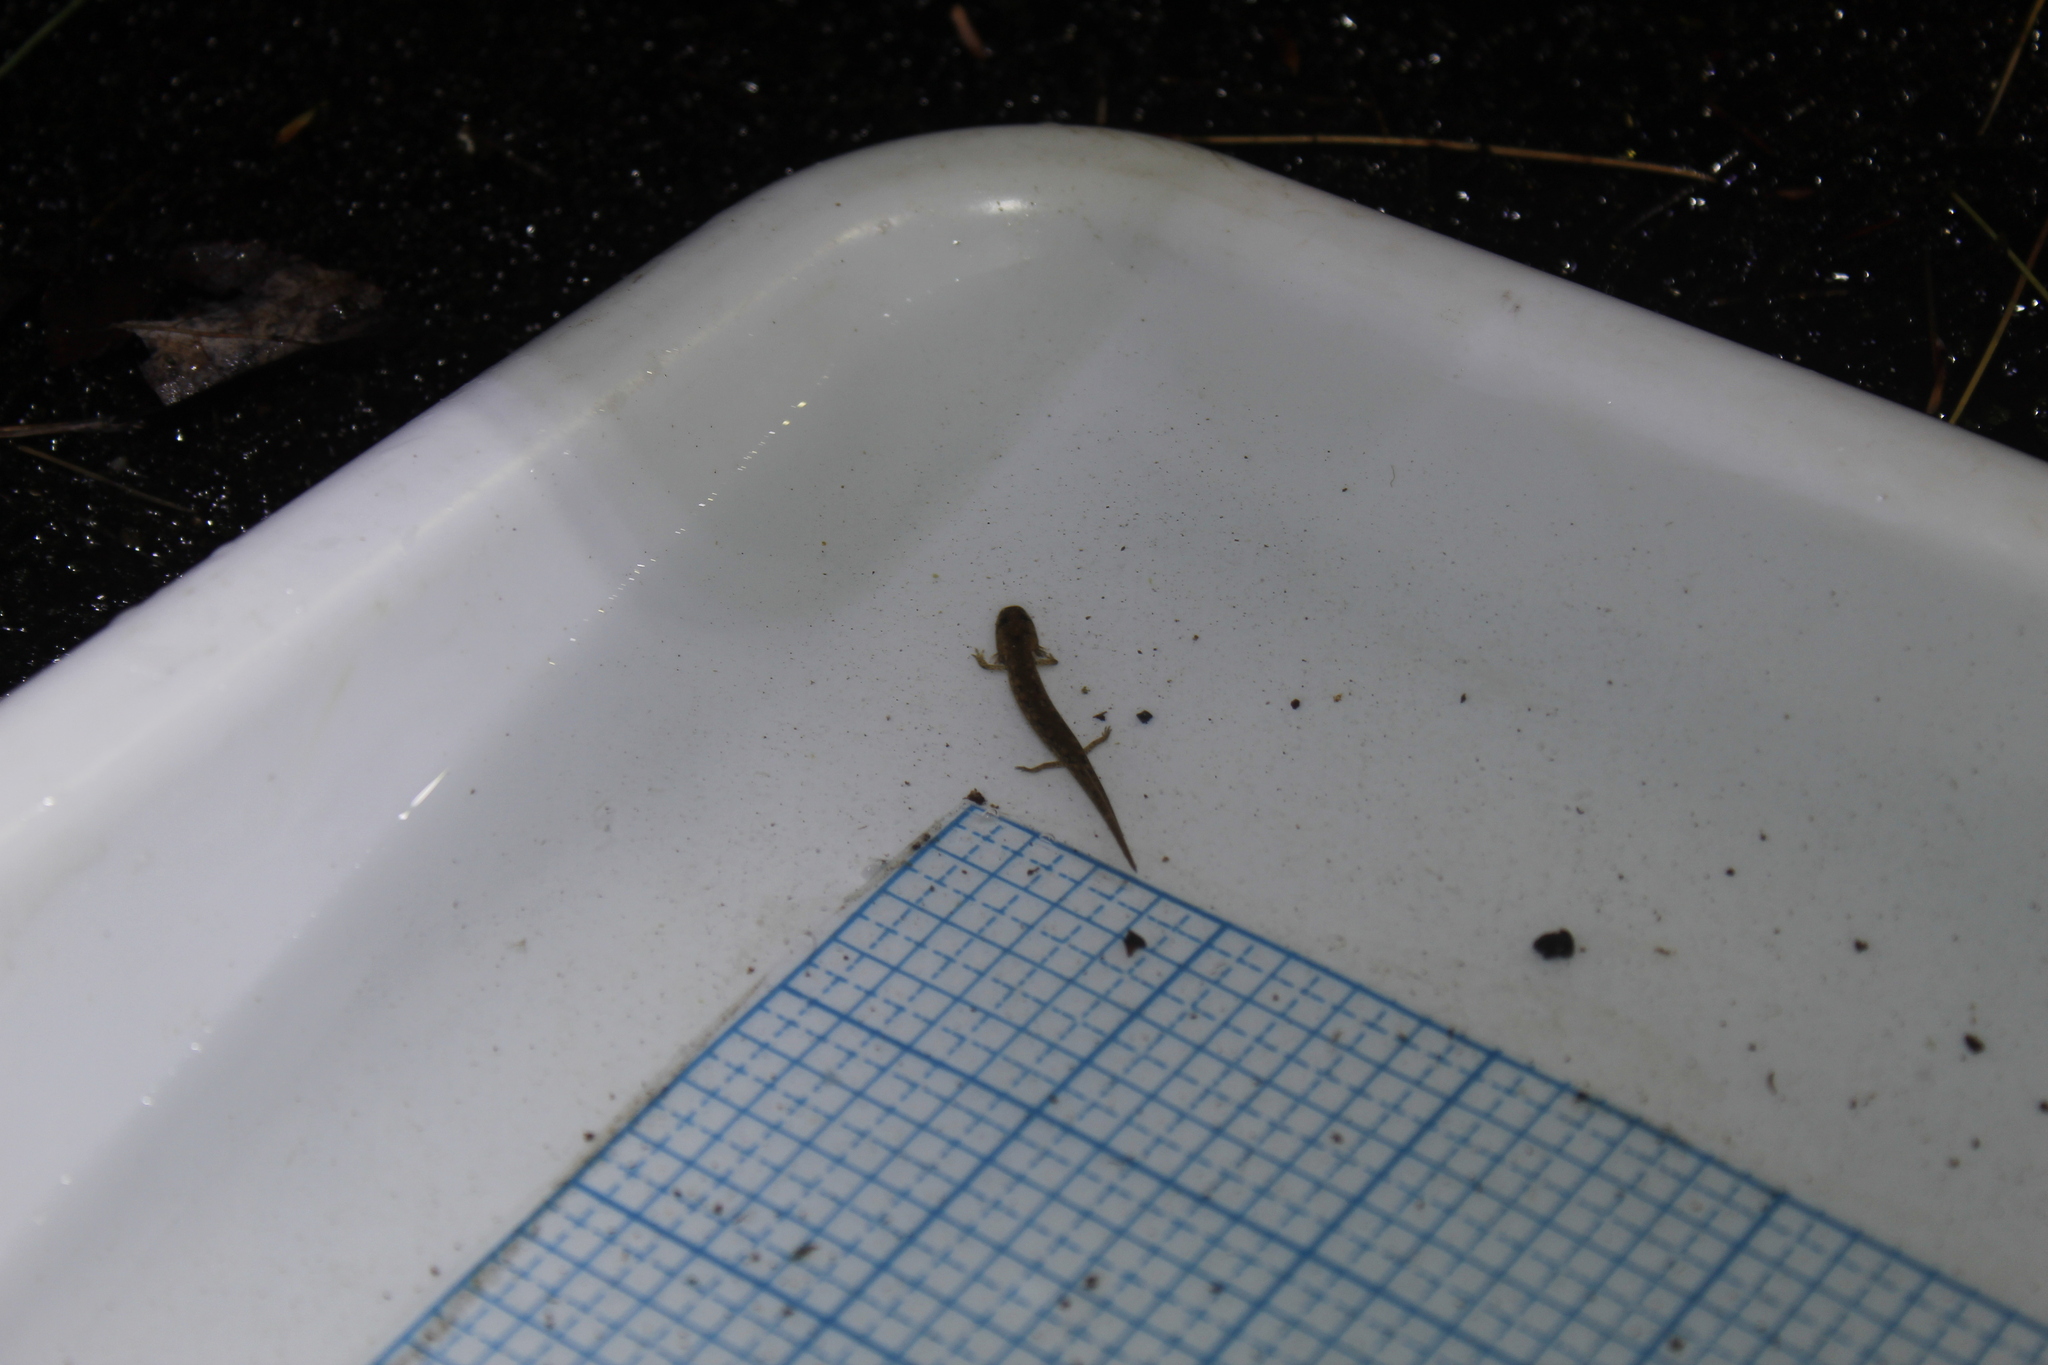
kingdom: Animalia
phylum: Chordata
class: Amphibia
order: Caudata
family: Plethodontidae
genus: Eurycea
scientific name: Eurycea bislineata
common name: Northern two-lined salamander
